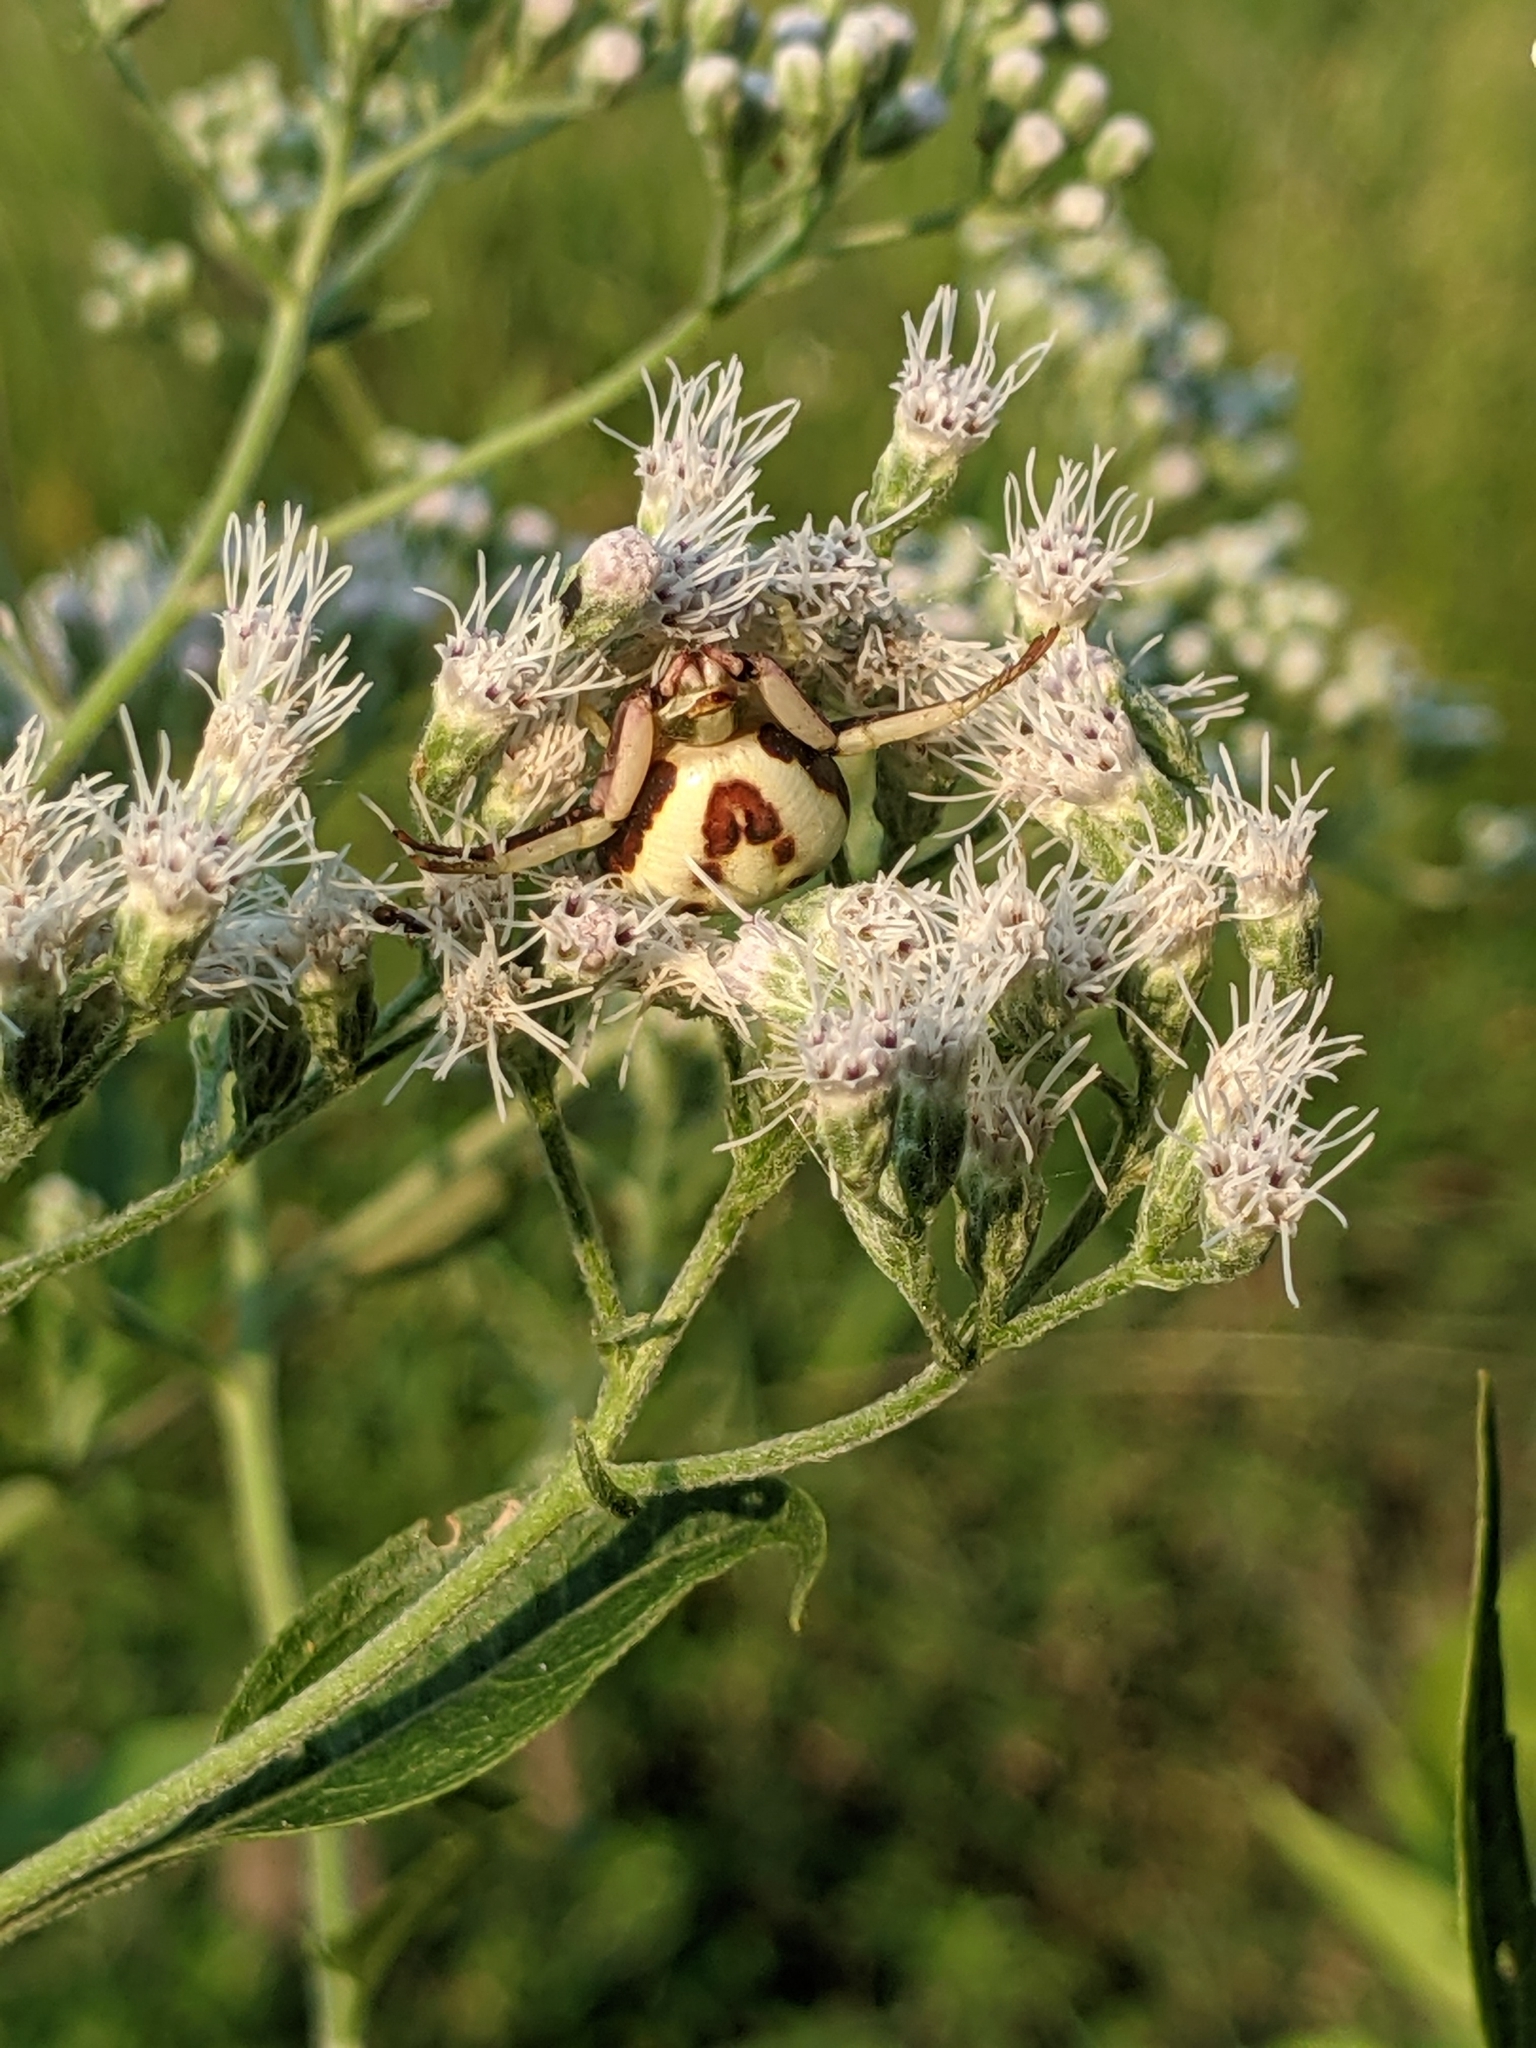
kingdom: Animalia
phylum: Arthropoda
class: Arachnida
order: Araneae
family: Thomisidae
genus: Misumenoides
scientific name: Misumenoides formosipes
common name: White-banded crab spider
